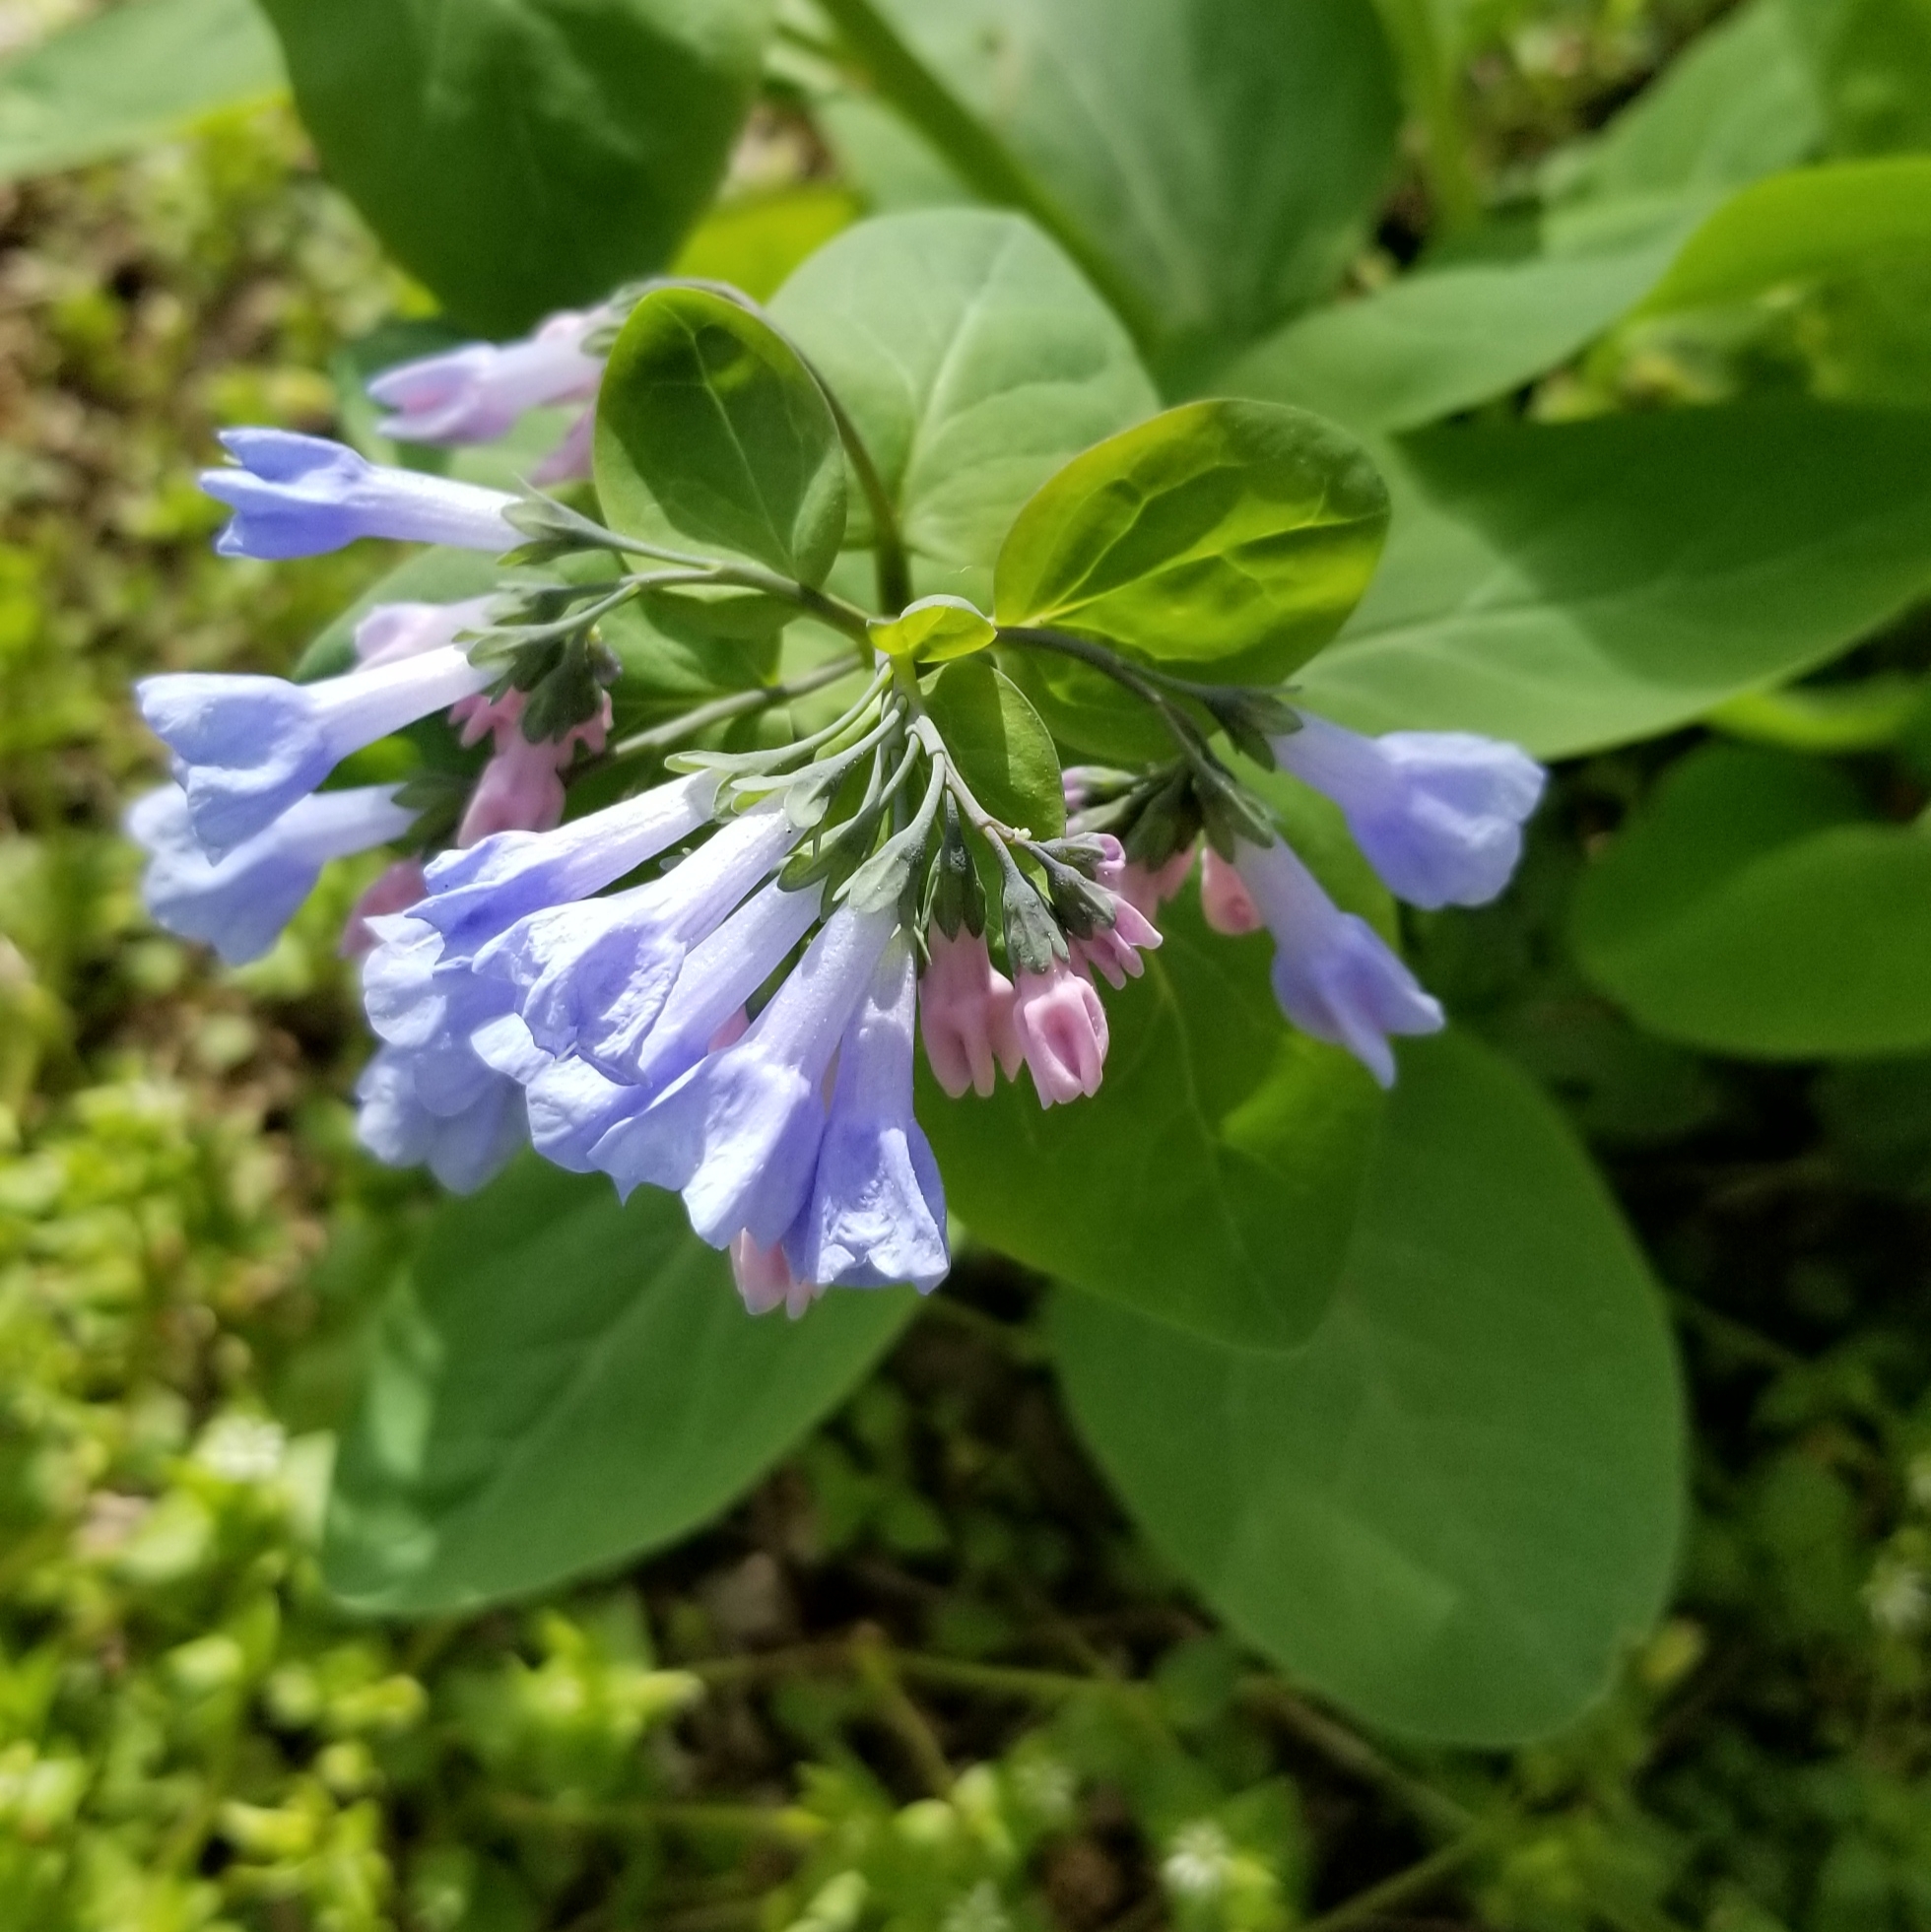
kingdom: Plantae
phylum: Tracheophyta
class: Magnoliopsida
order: Boraginales
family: Boraginaceae
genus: Mertensia
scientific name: Mertensia virginica
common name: Virginia bluebells
